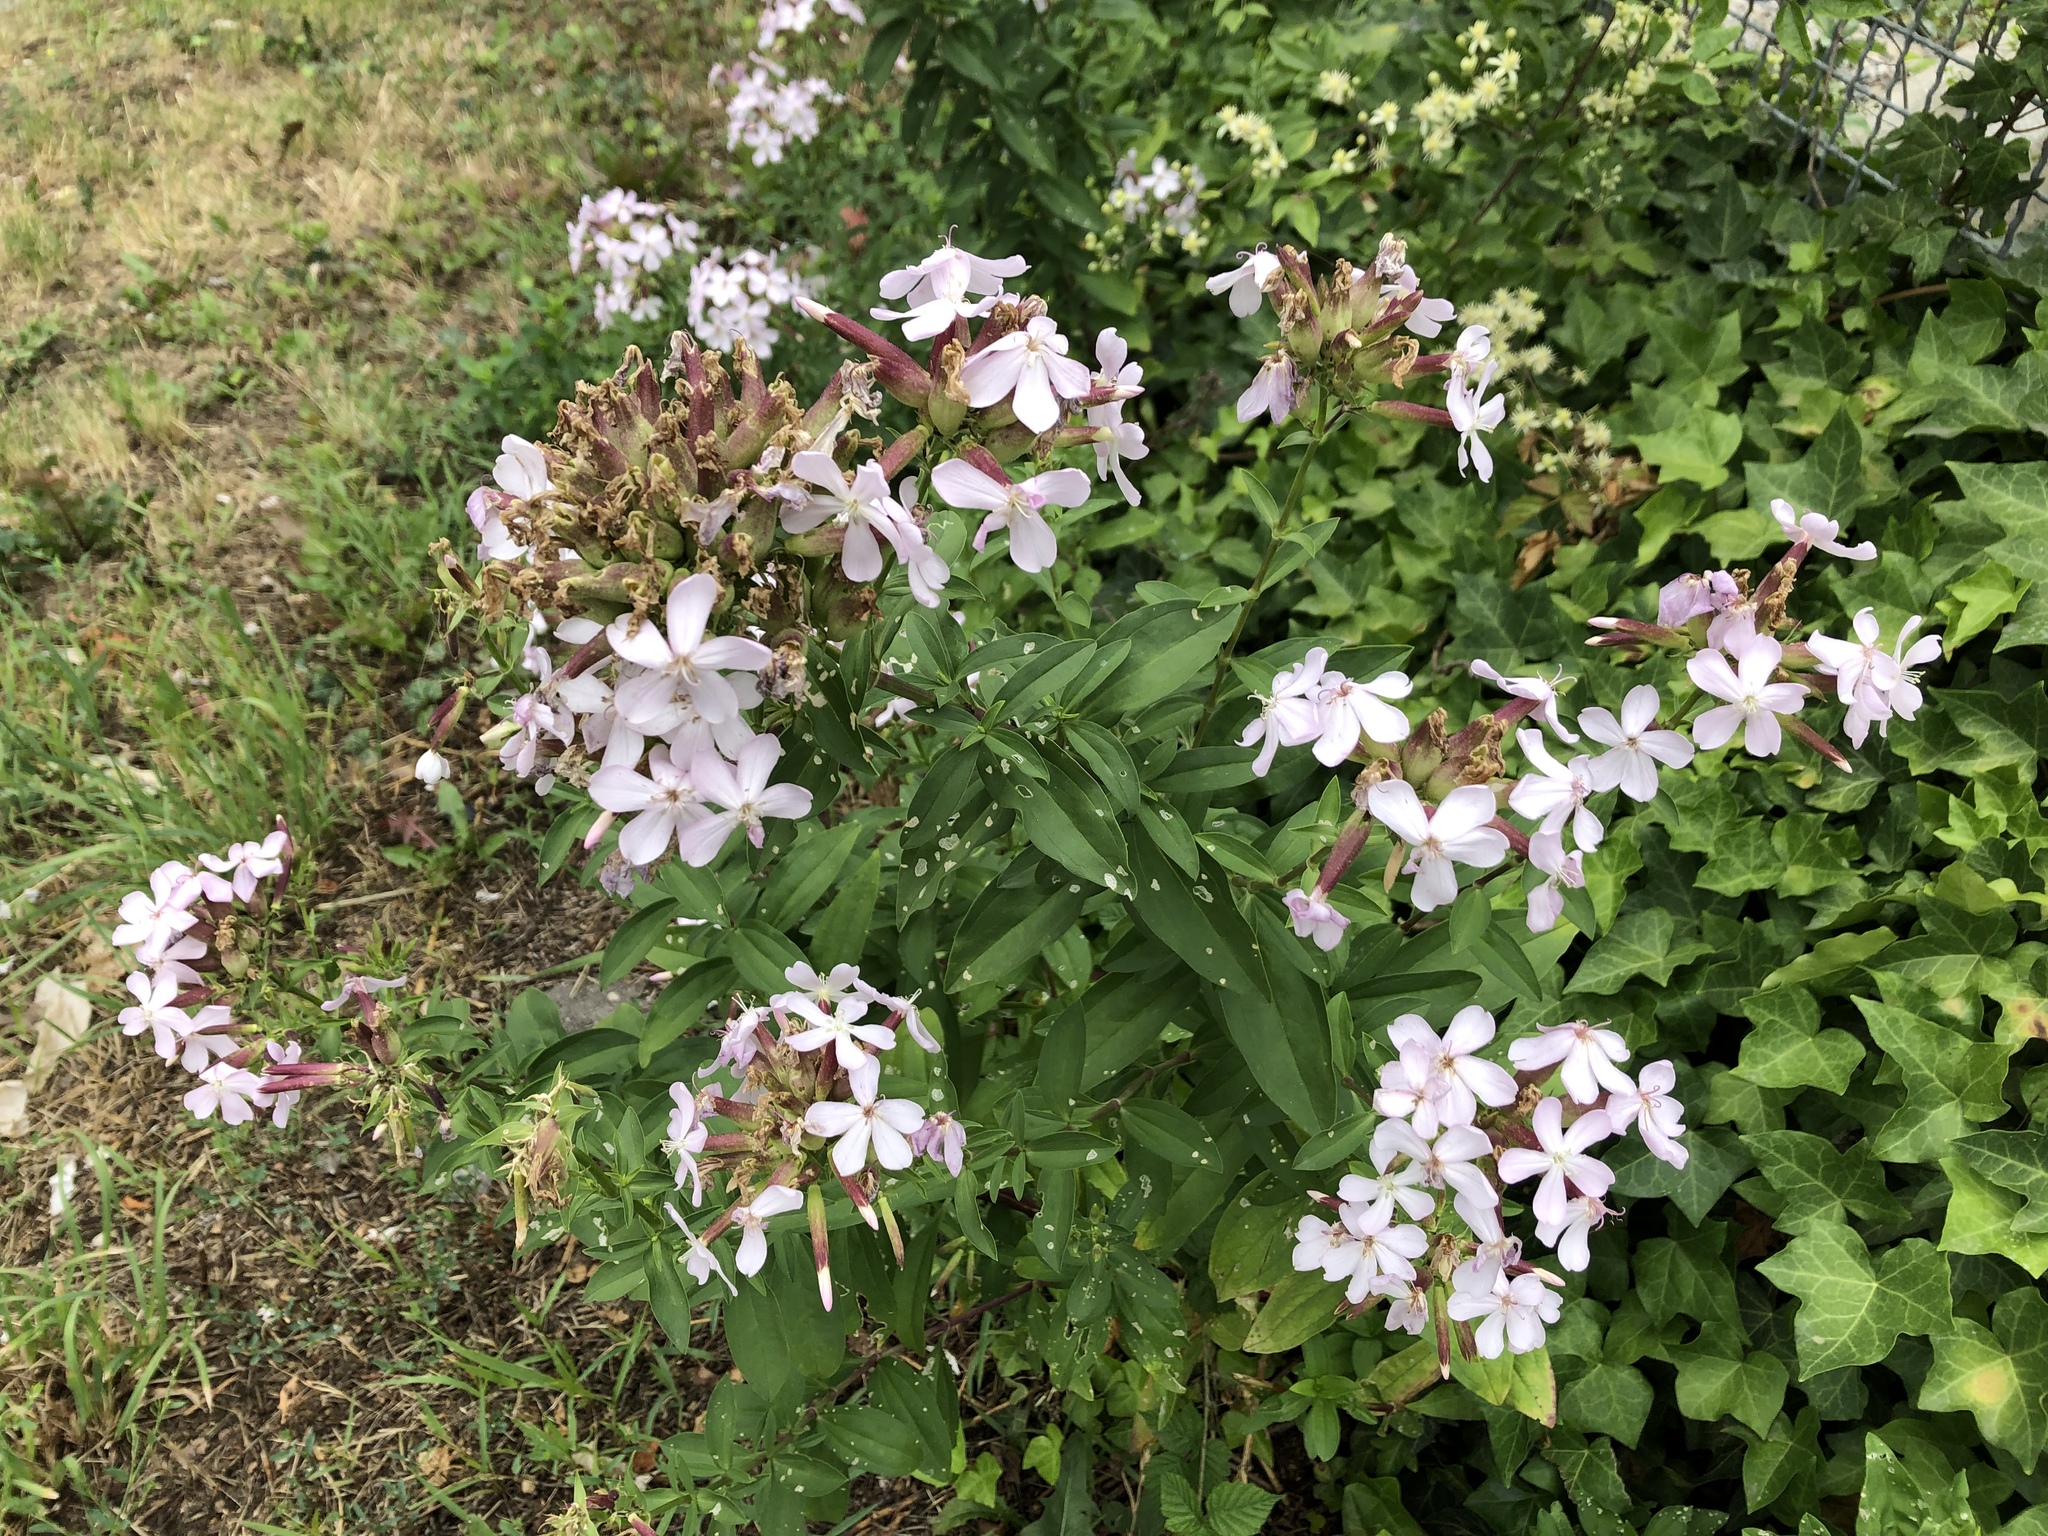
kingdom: Plantae
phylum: Tracheophyta
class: Magnoliopsida
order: Caryophyllales
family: Caryophyllaceae
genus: Saponaria
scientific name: Saponaria officinalis
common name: Soapwort
